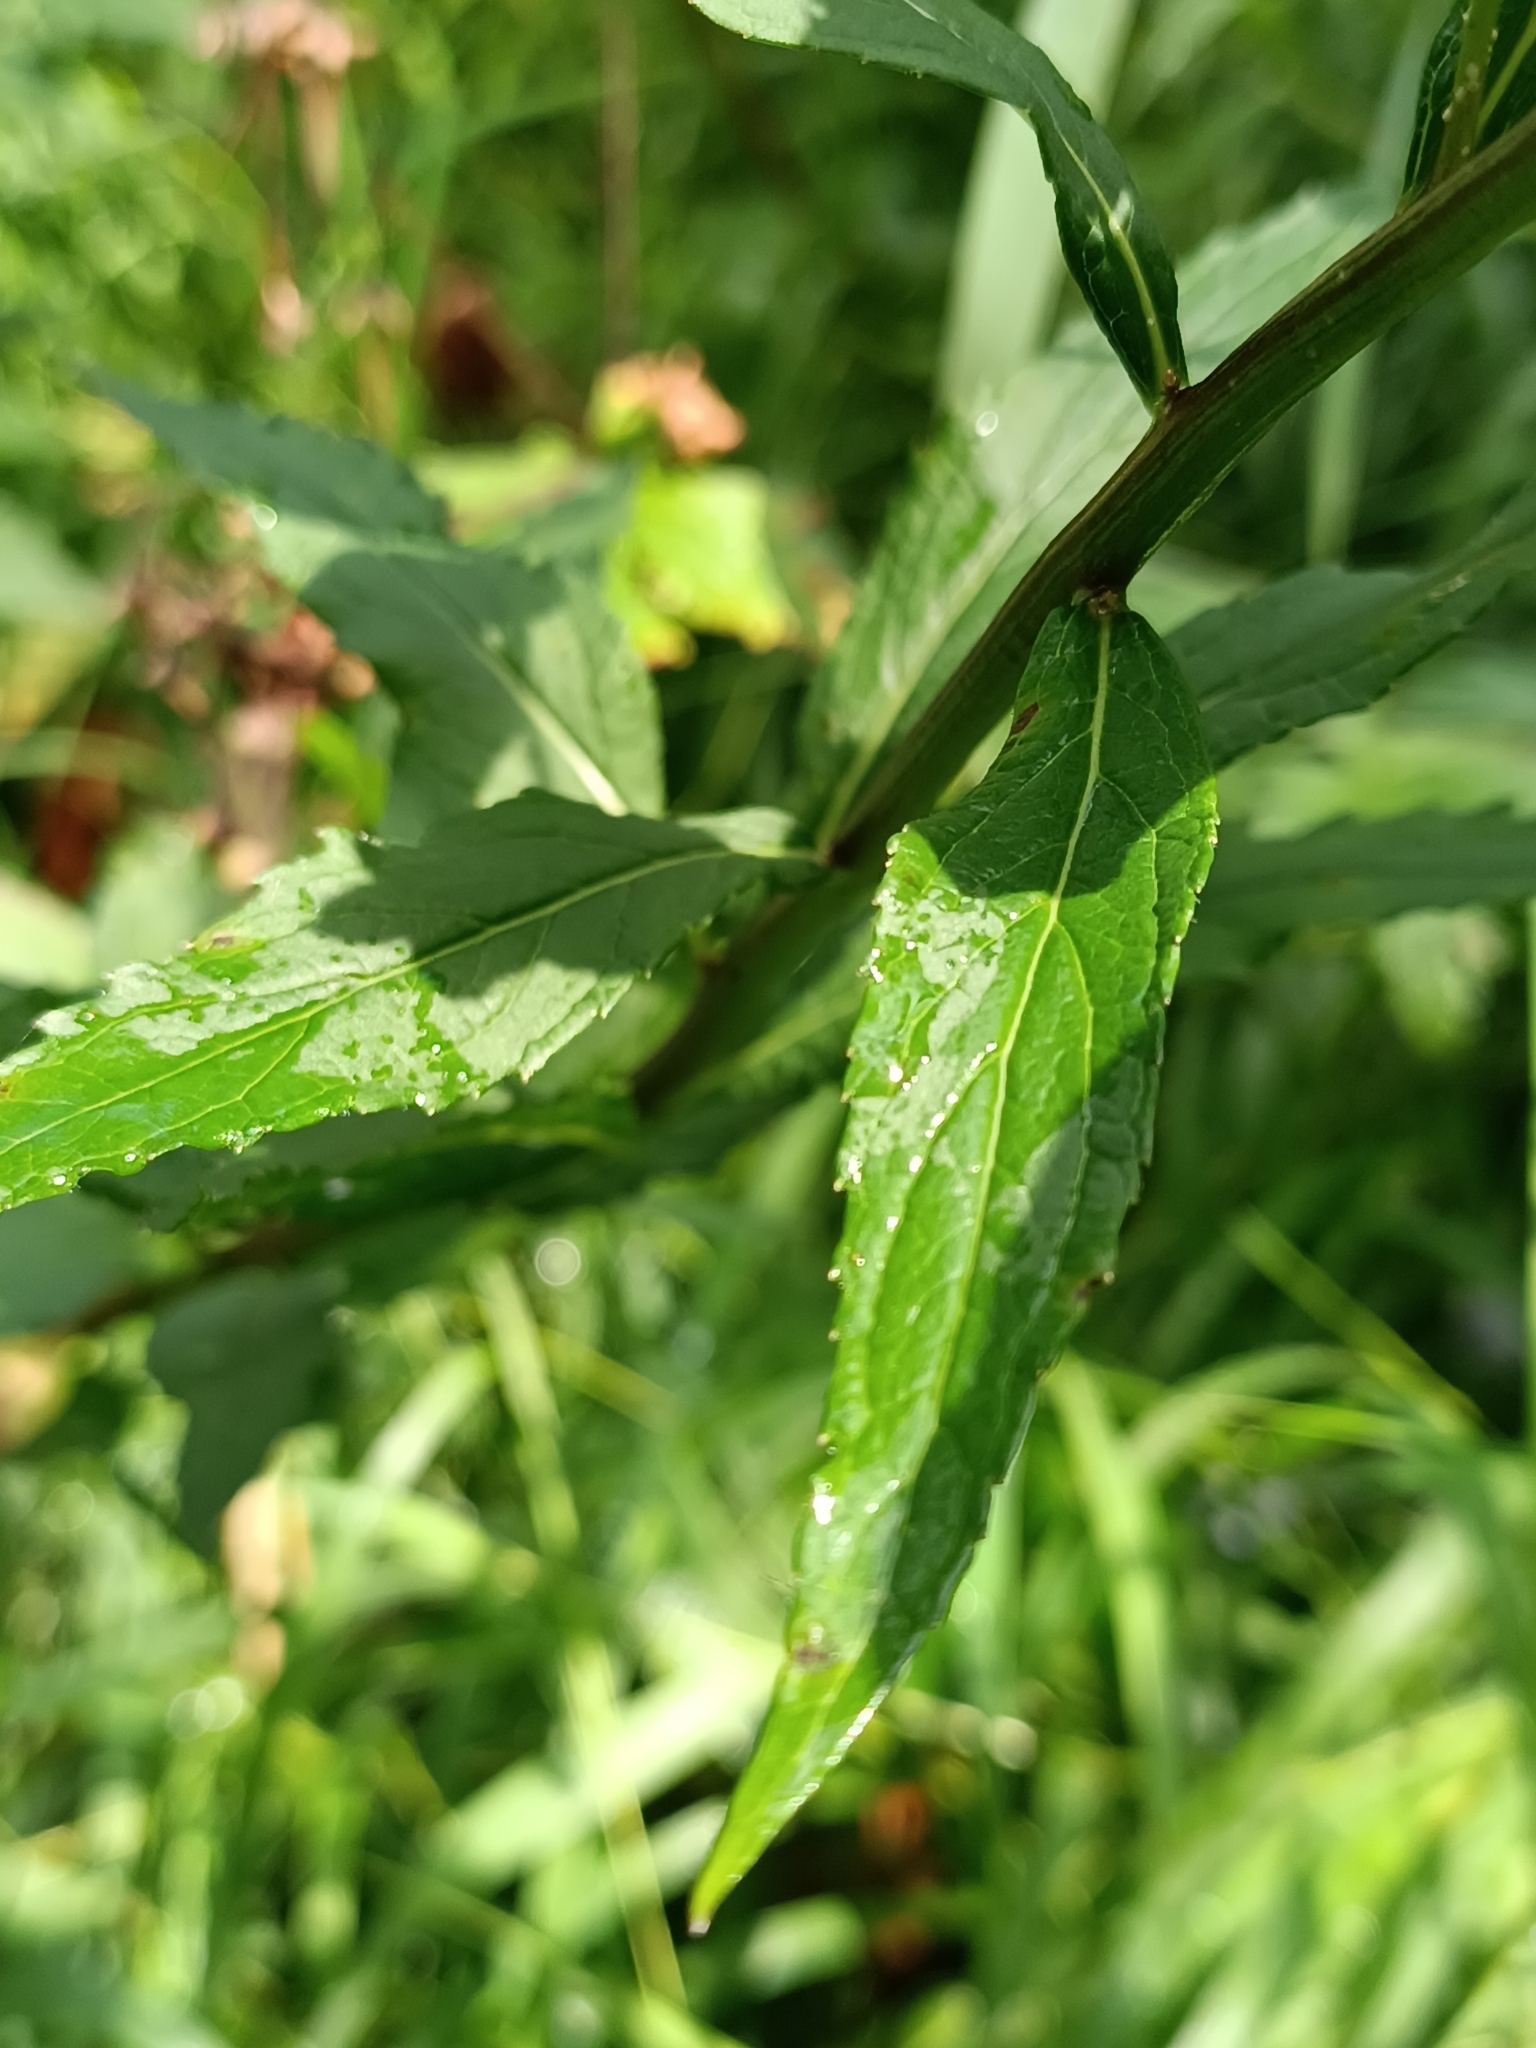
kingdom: Plantae
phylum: Tracheophyta
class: Magnoliopsida
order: Asterales
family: Campanulaceae
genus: Adenophora
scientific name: Adenophora liliifolia
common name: Lilyleaf ladybells
